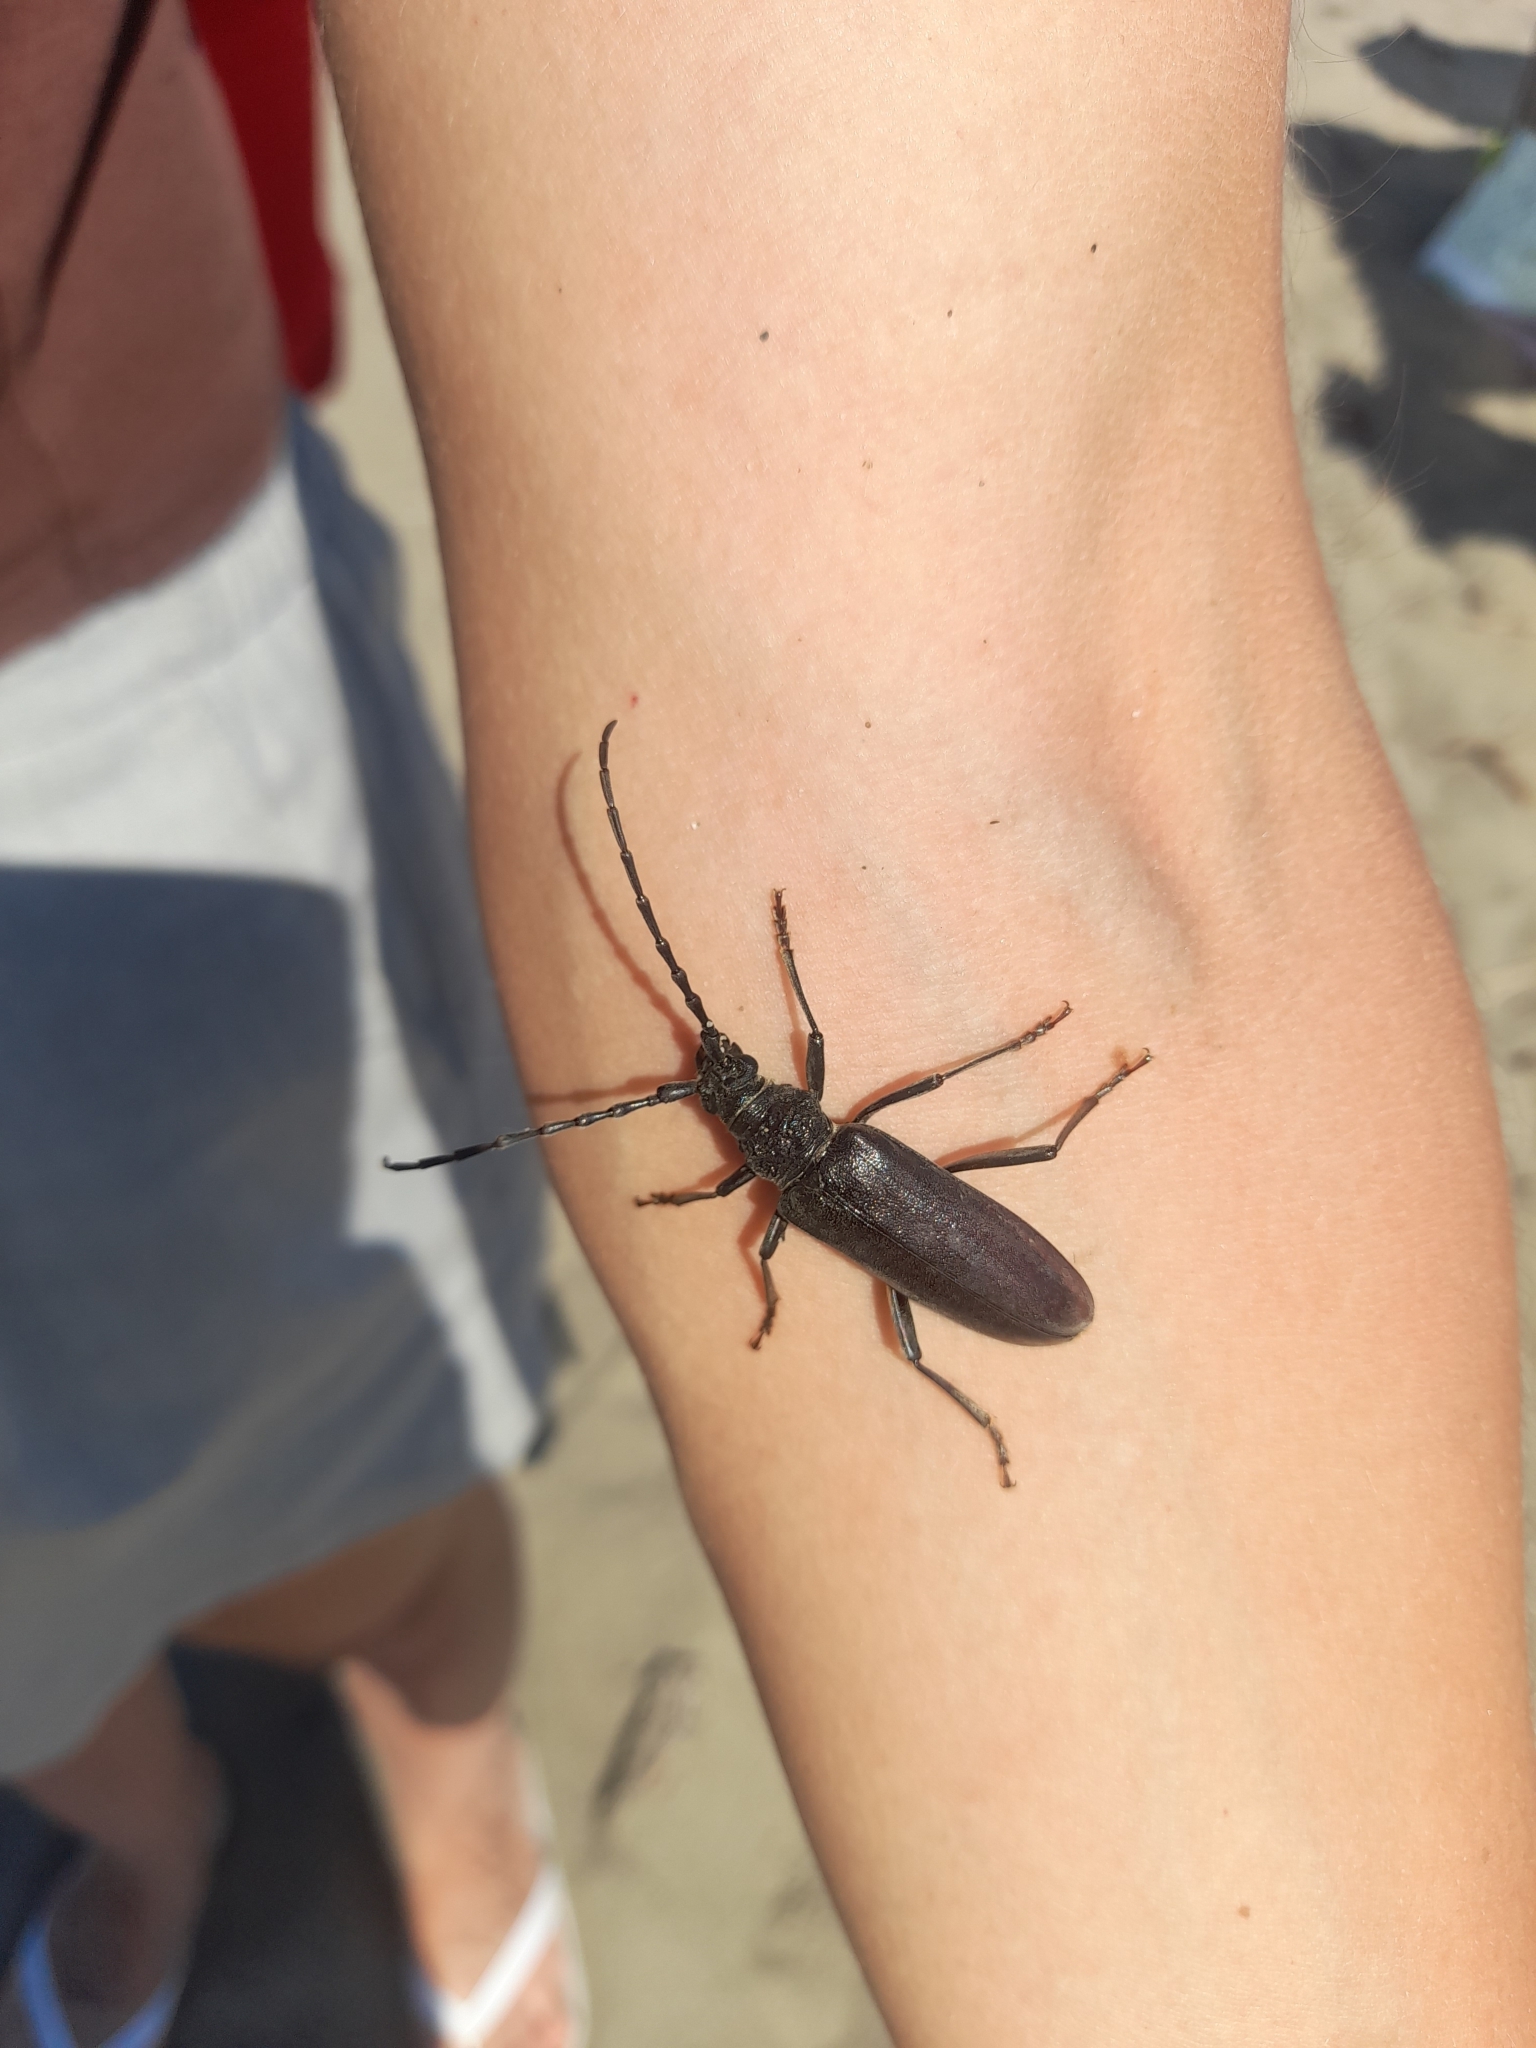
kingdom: Animalia
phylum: Arthropoda
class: Insecta
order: Coleoptera
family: Cerambycidae
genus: Cerambyx
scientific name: Cerambyx welensii
